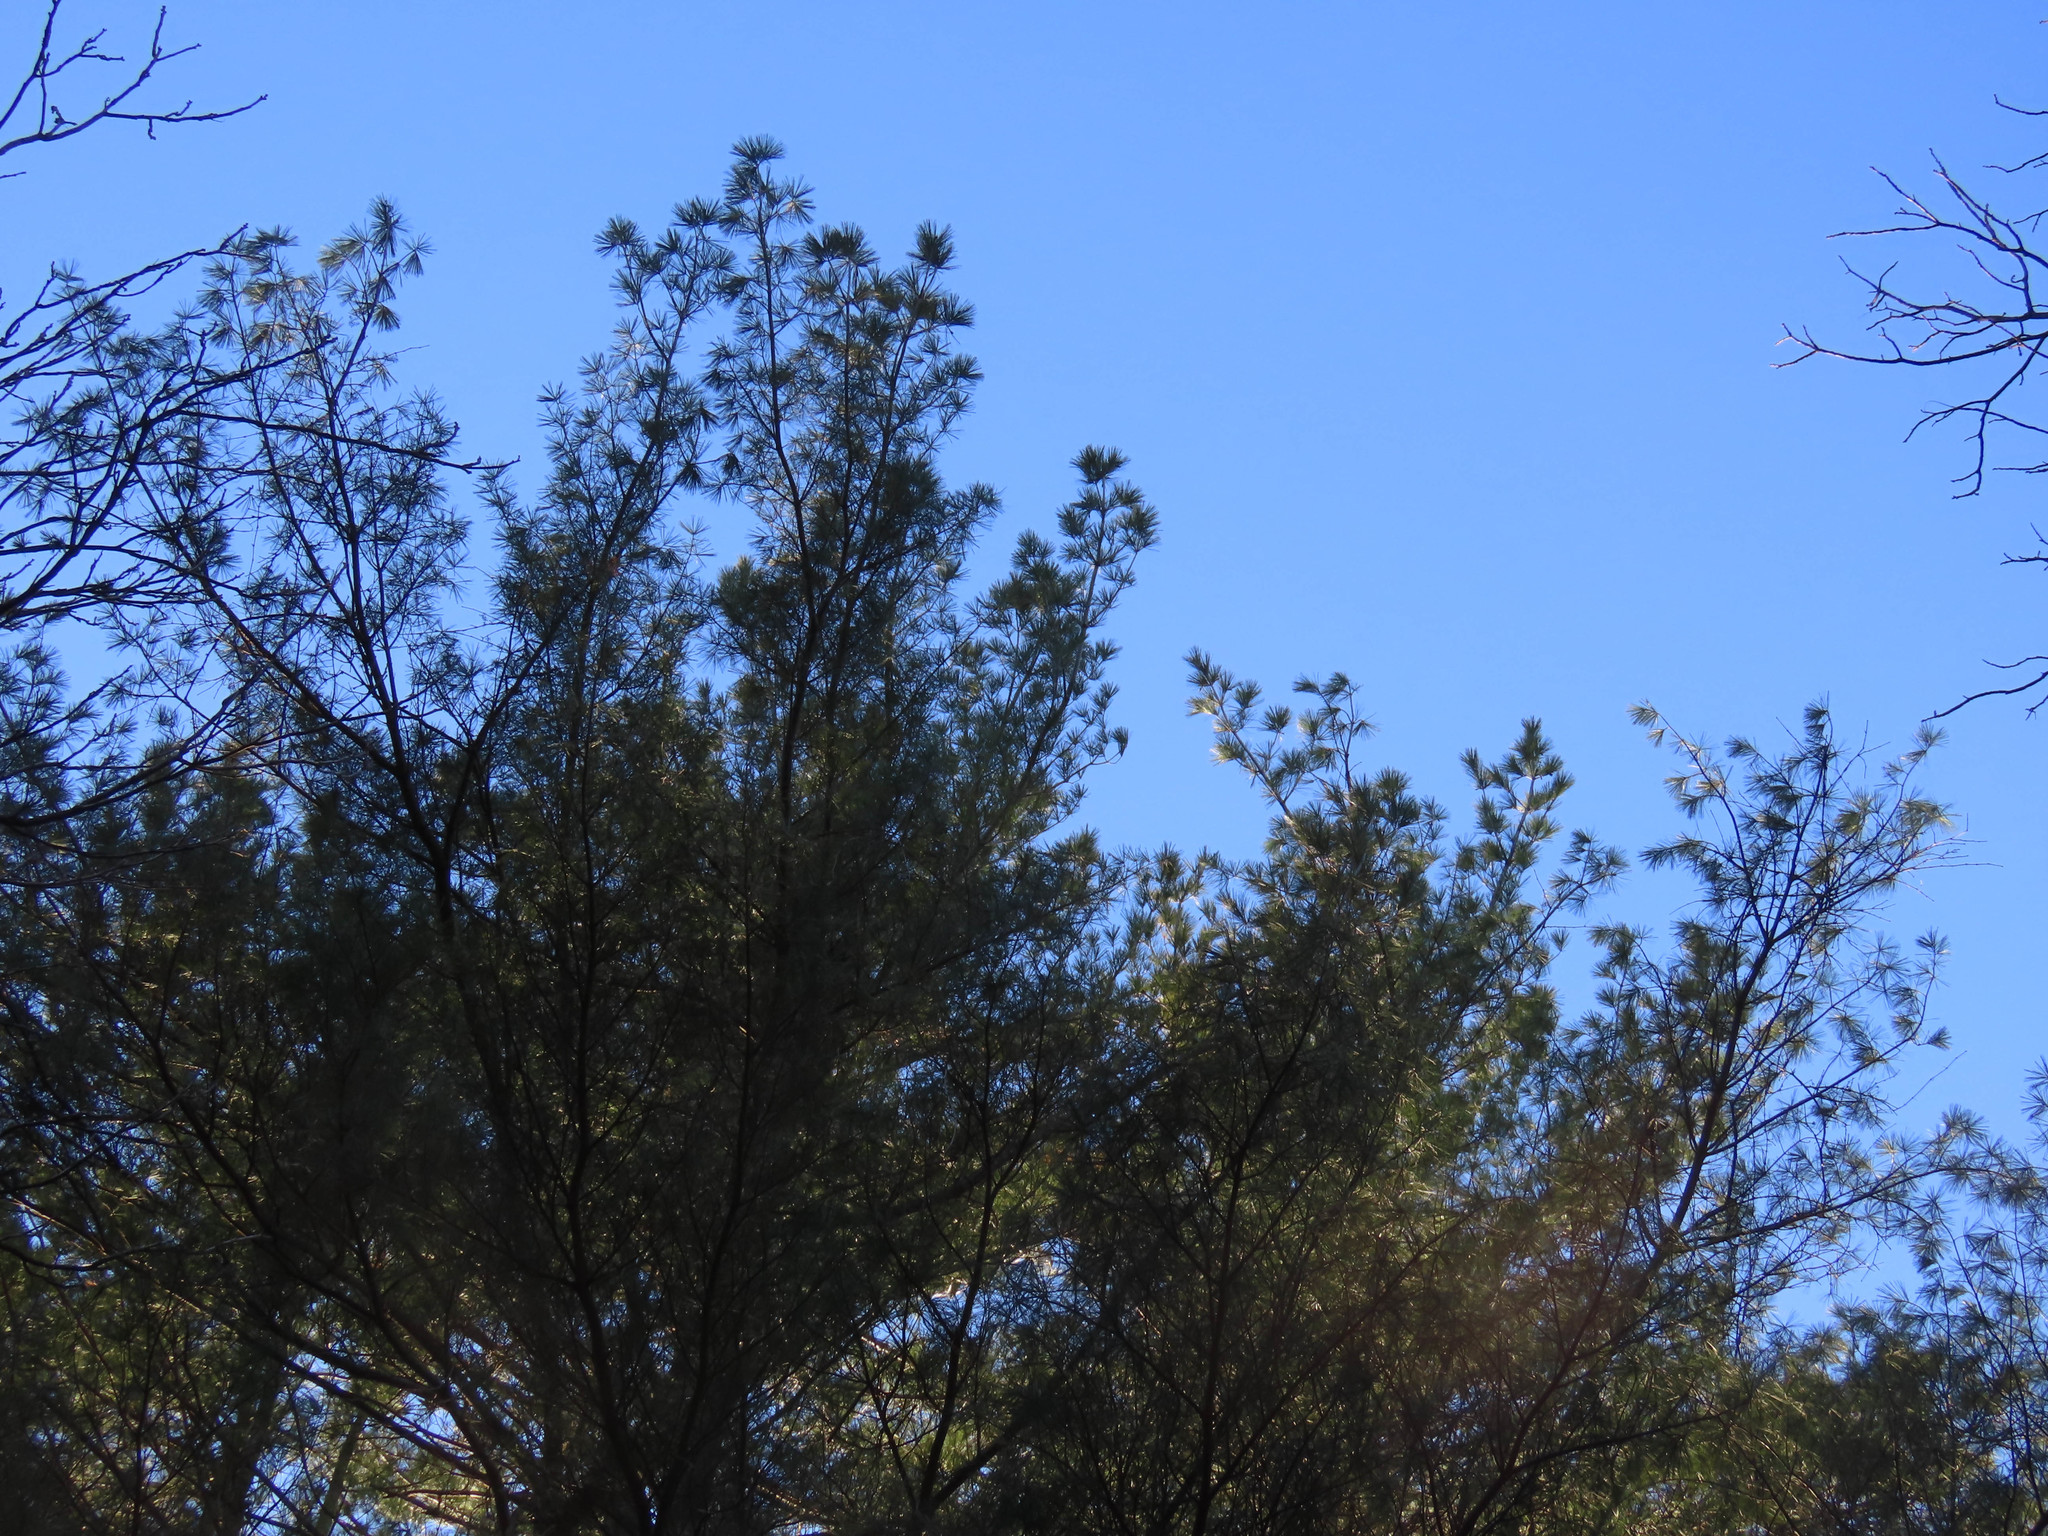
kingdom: Plantae
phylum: Tracheophyta
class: Pinopsida
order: Pinales
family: Pinaceae
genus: Pinus
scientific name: Pinus strobus
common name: Weymouth pine
